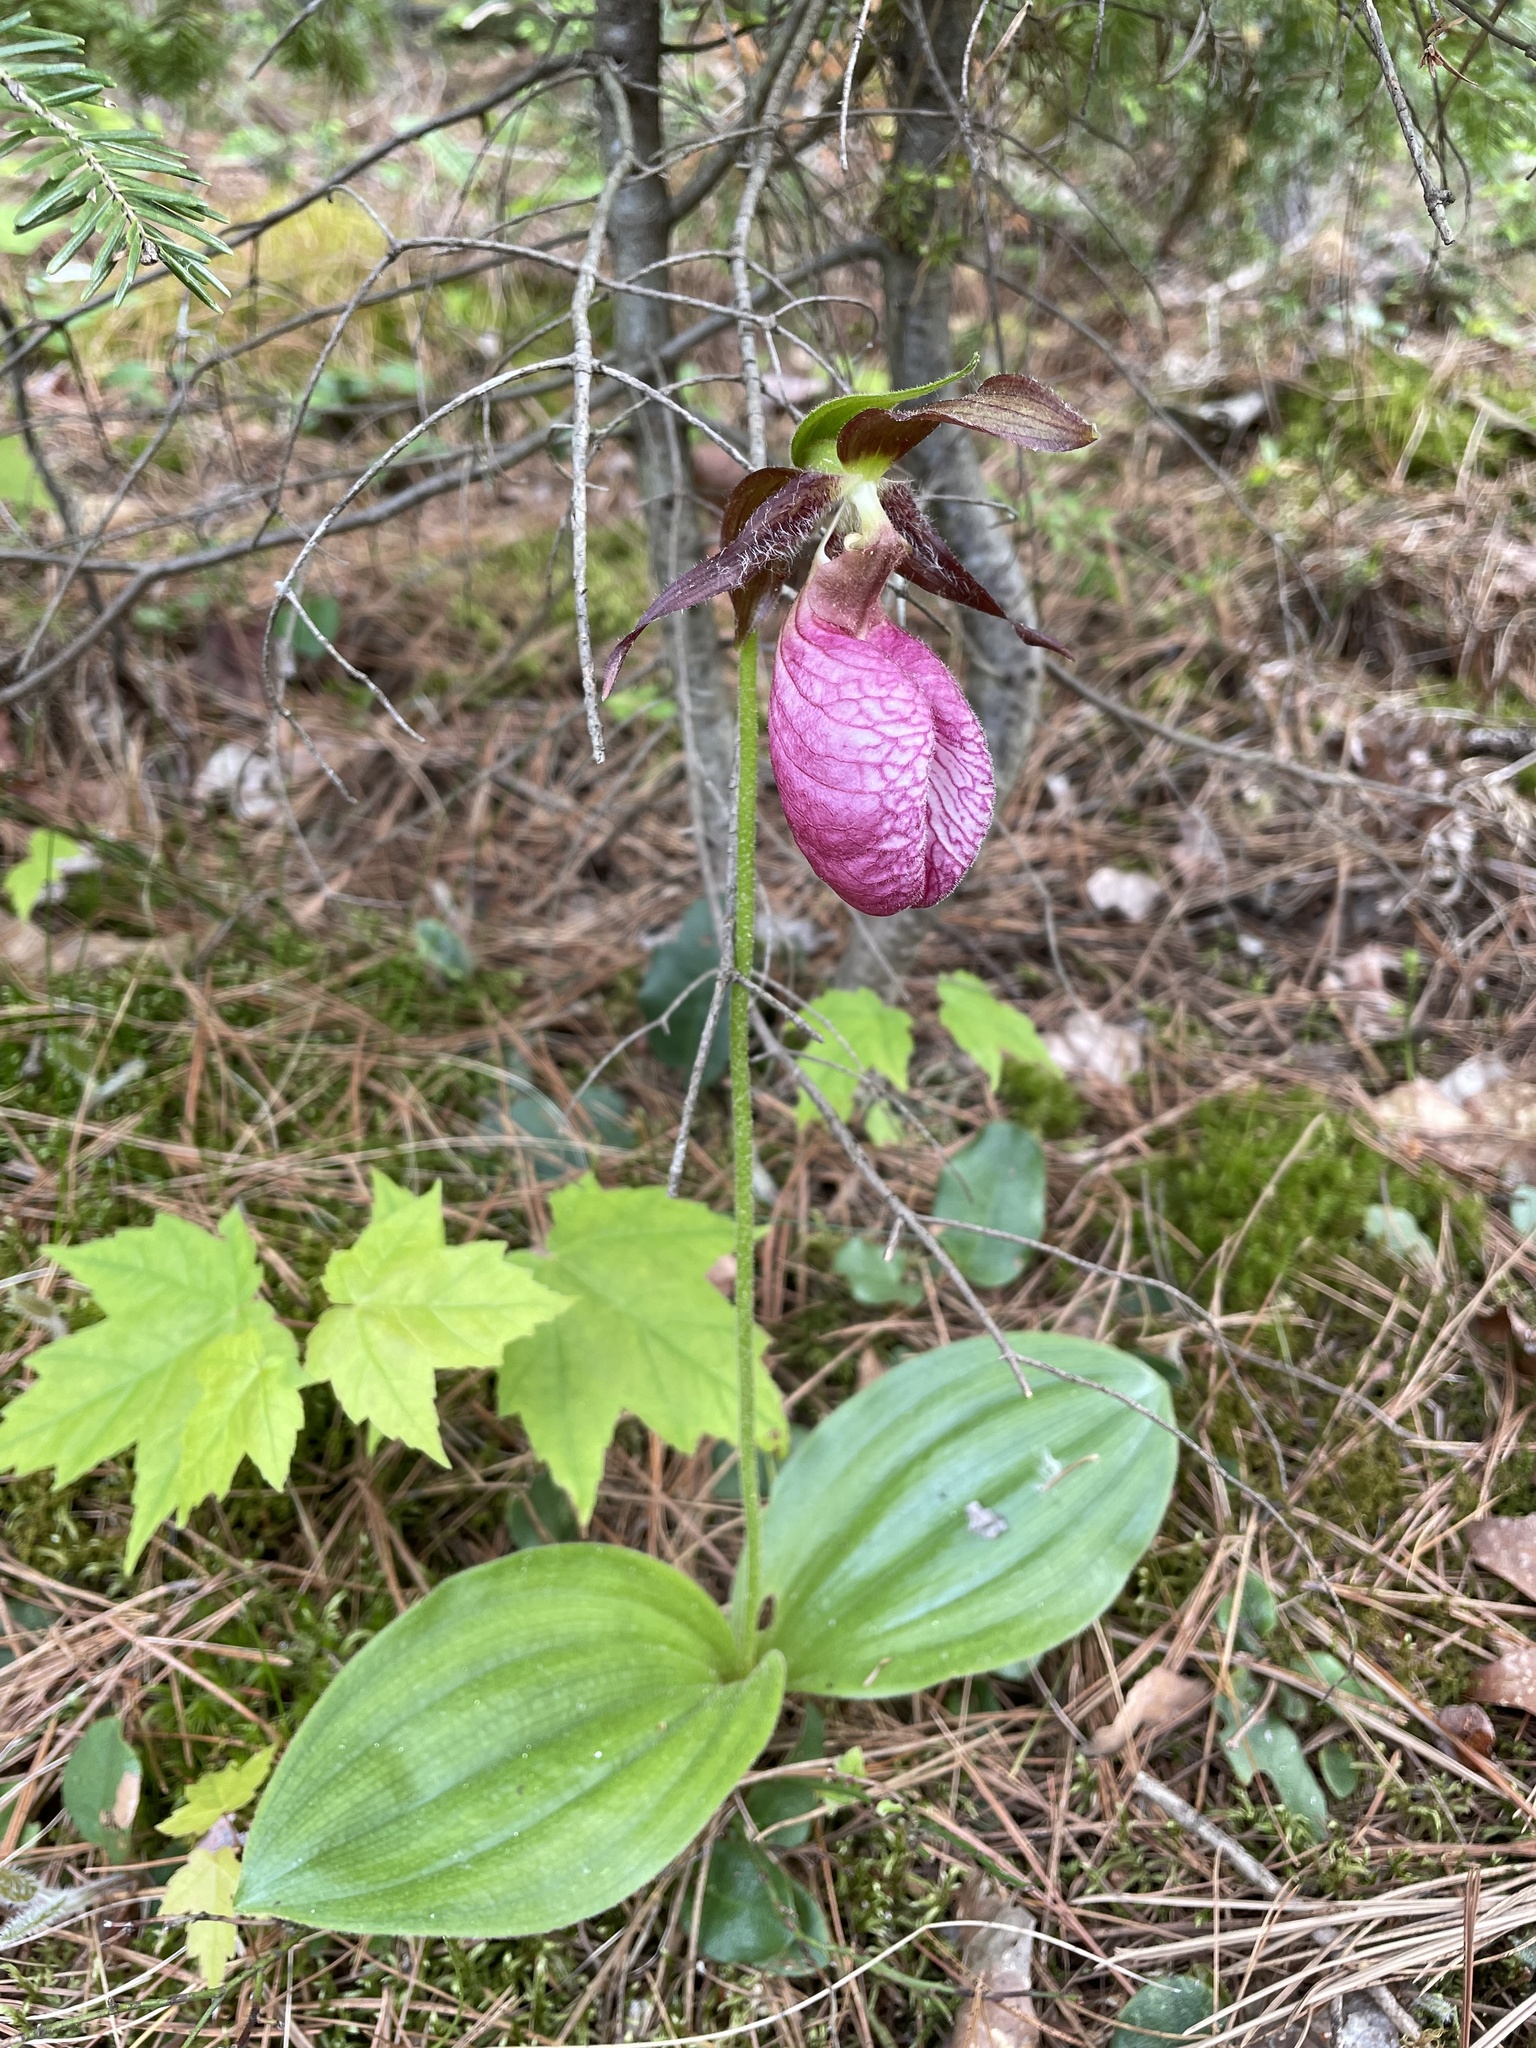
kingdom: Plantae
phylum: Tracheophyta
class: Liliopsida
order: Asparagales
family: Orchidaceae
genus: Cypripedium
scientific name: Cypripedium acaule
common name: Pink lady's-slipper
